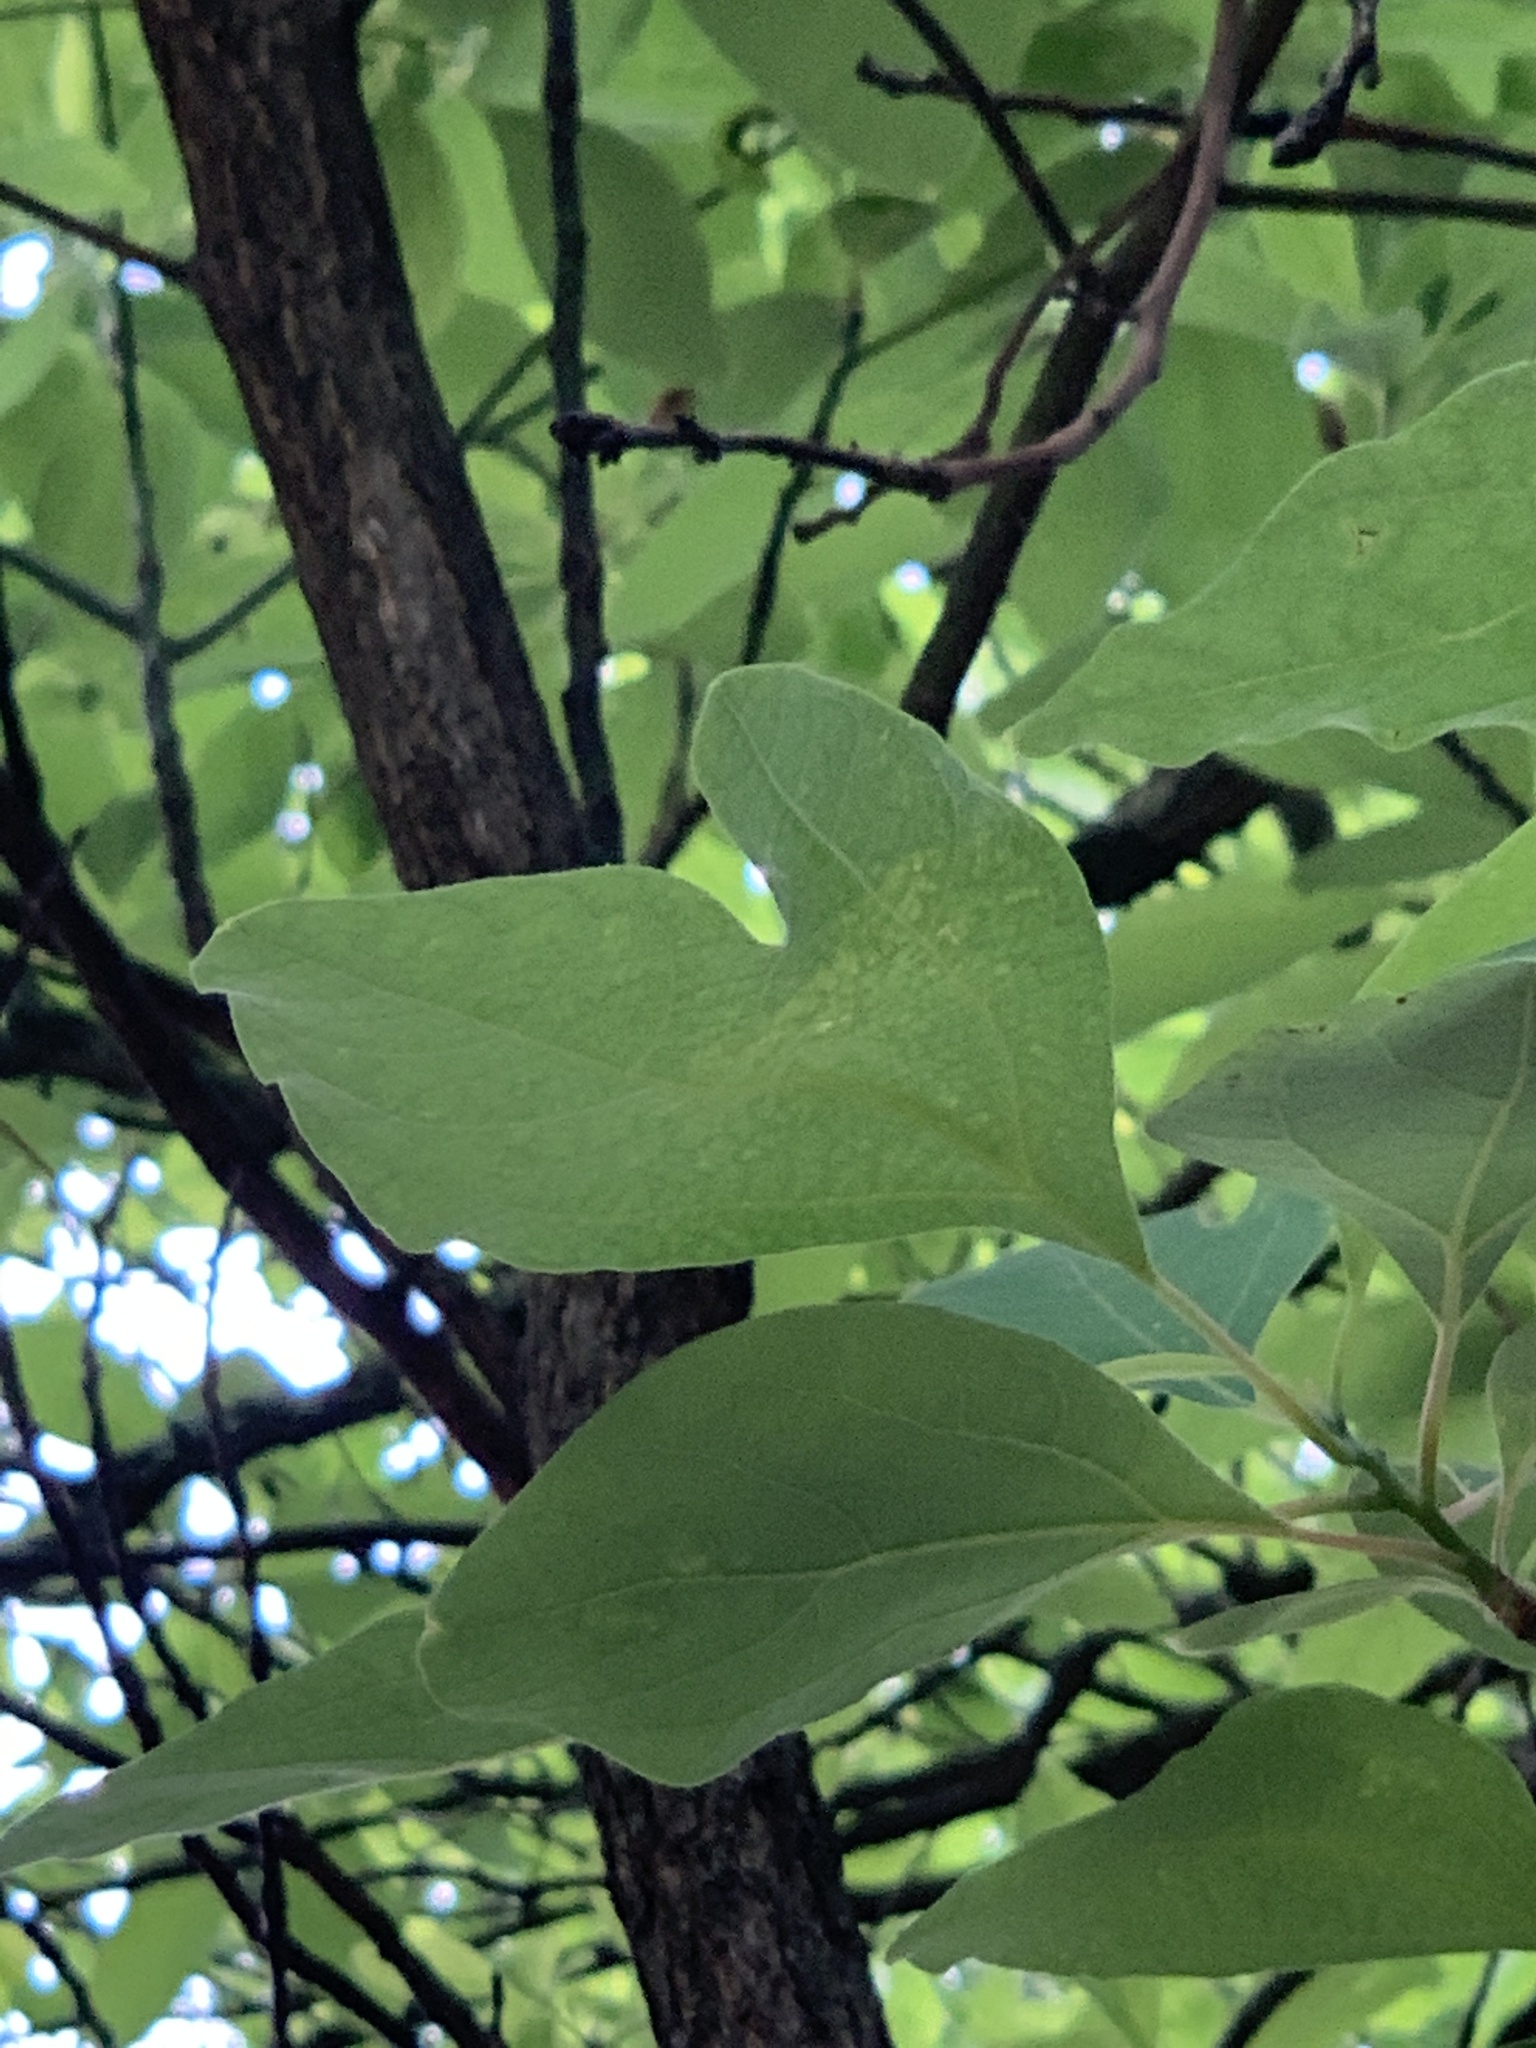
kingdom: Plantae
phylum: Tracheophyta
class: Magnoliopsida
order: Laurales
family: Lauraceae
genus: Sassafras
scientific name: Sassafras albidum
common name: Sassafras
